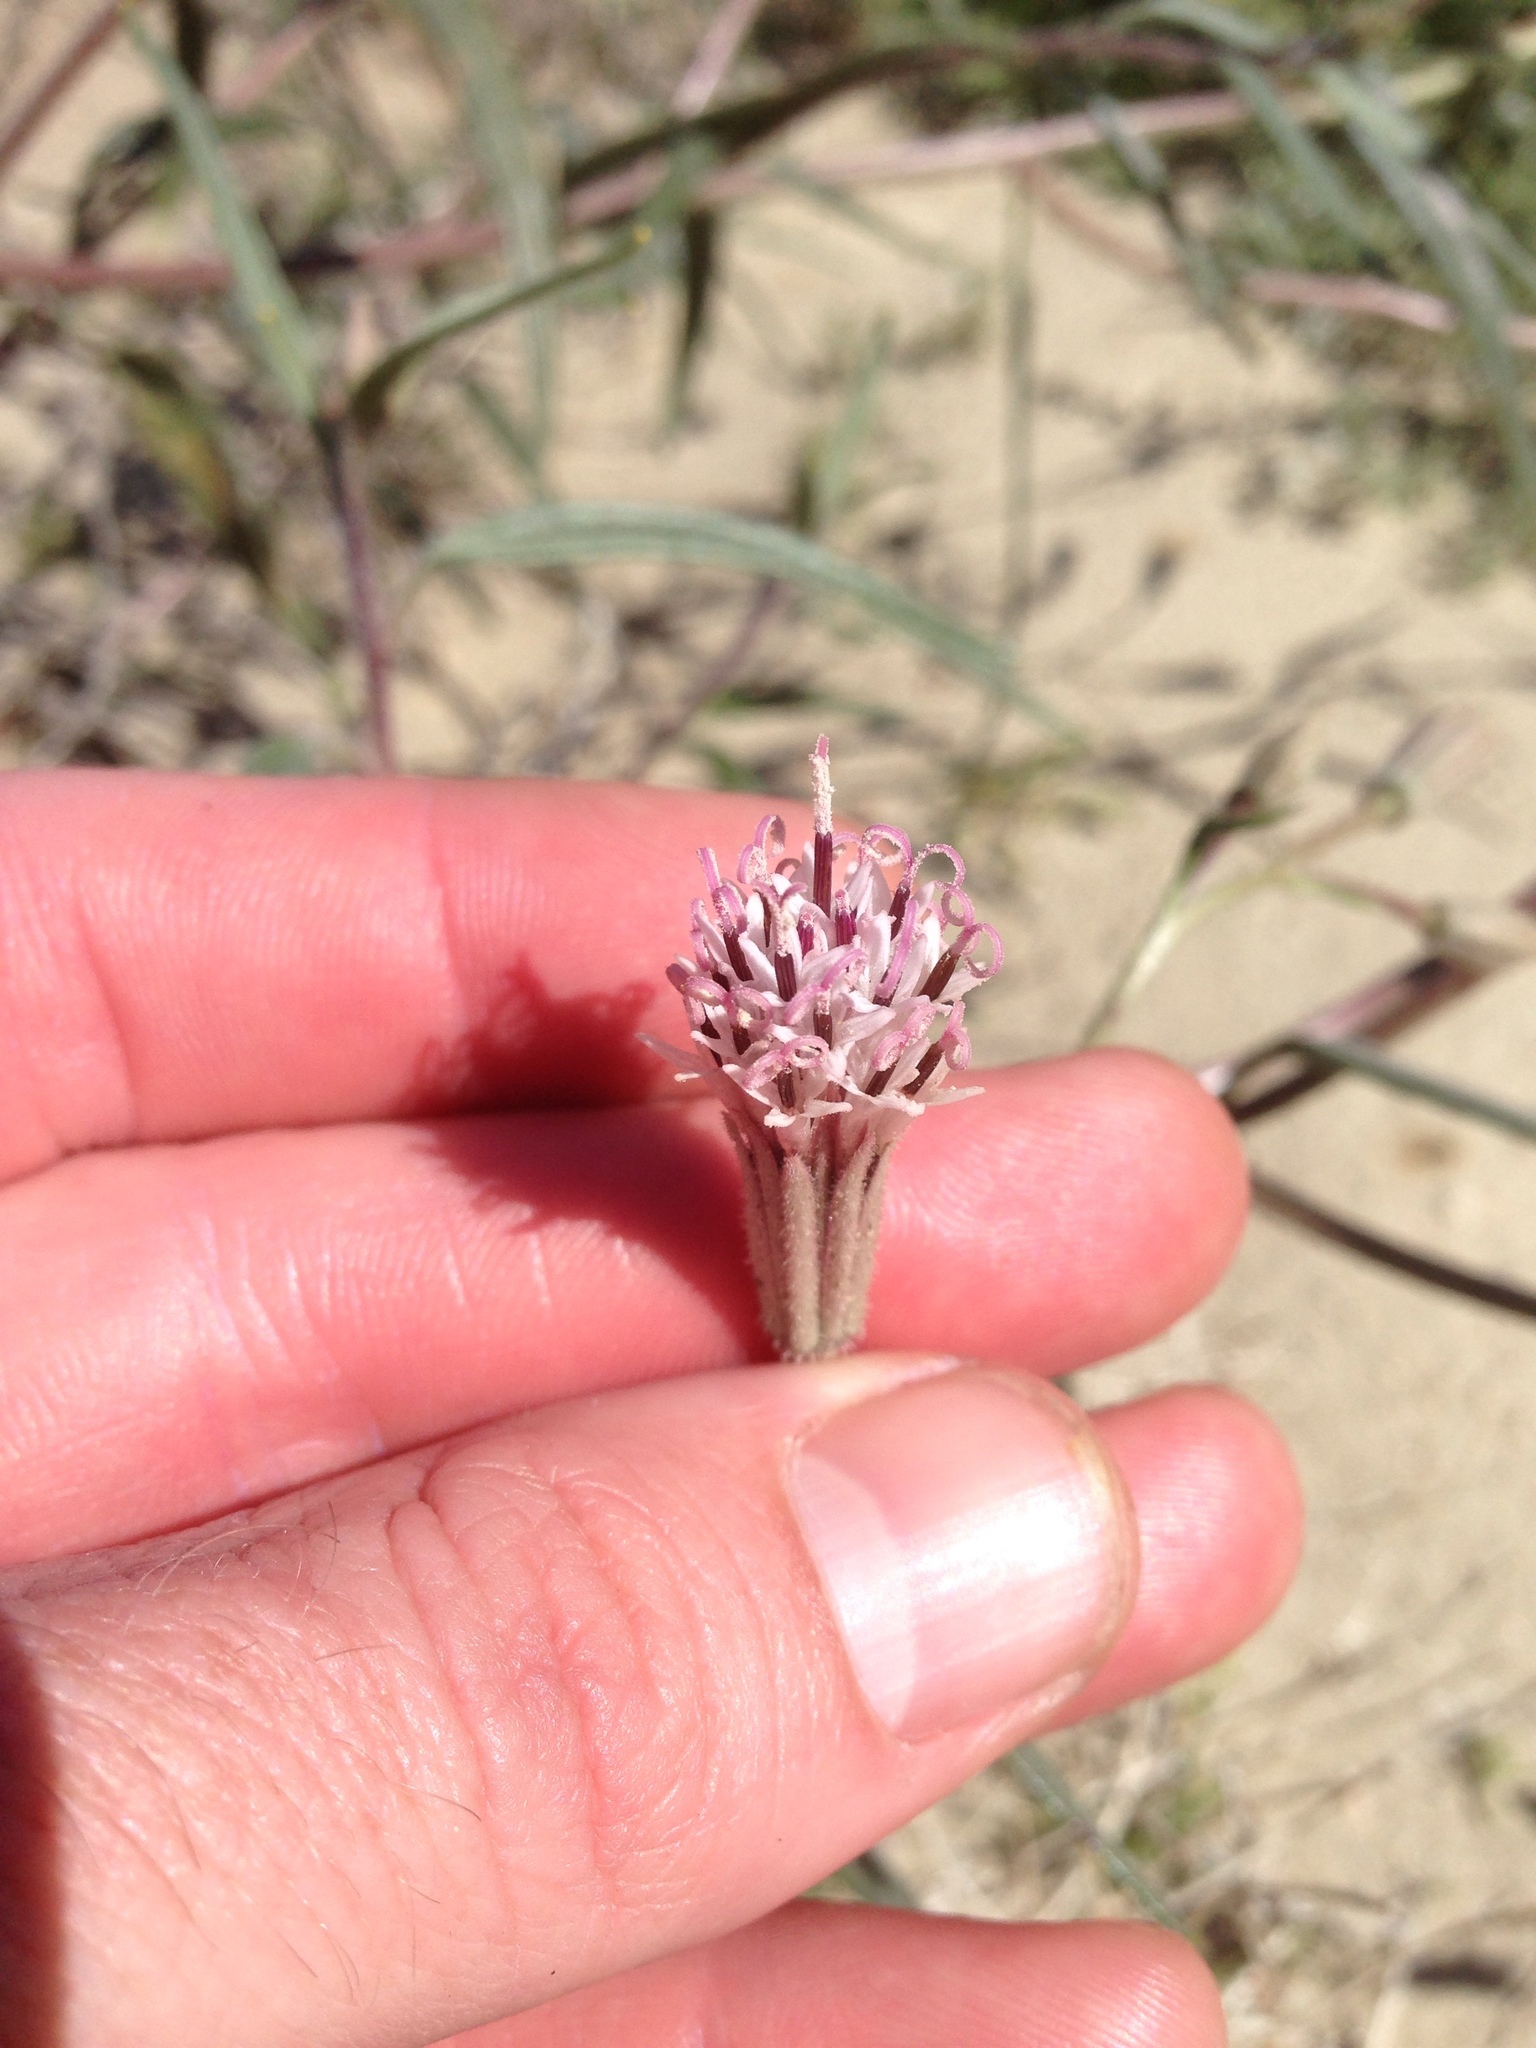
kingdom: Plantae
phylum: Tracheophyta
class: Magnoliopsida
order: Asterales
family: Asteraceae
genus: Palafoxia
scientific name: Palafoxia arida
